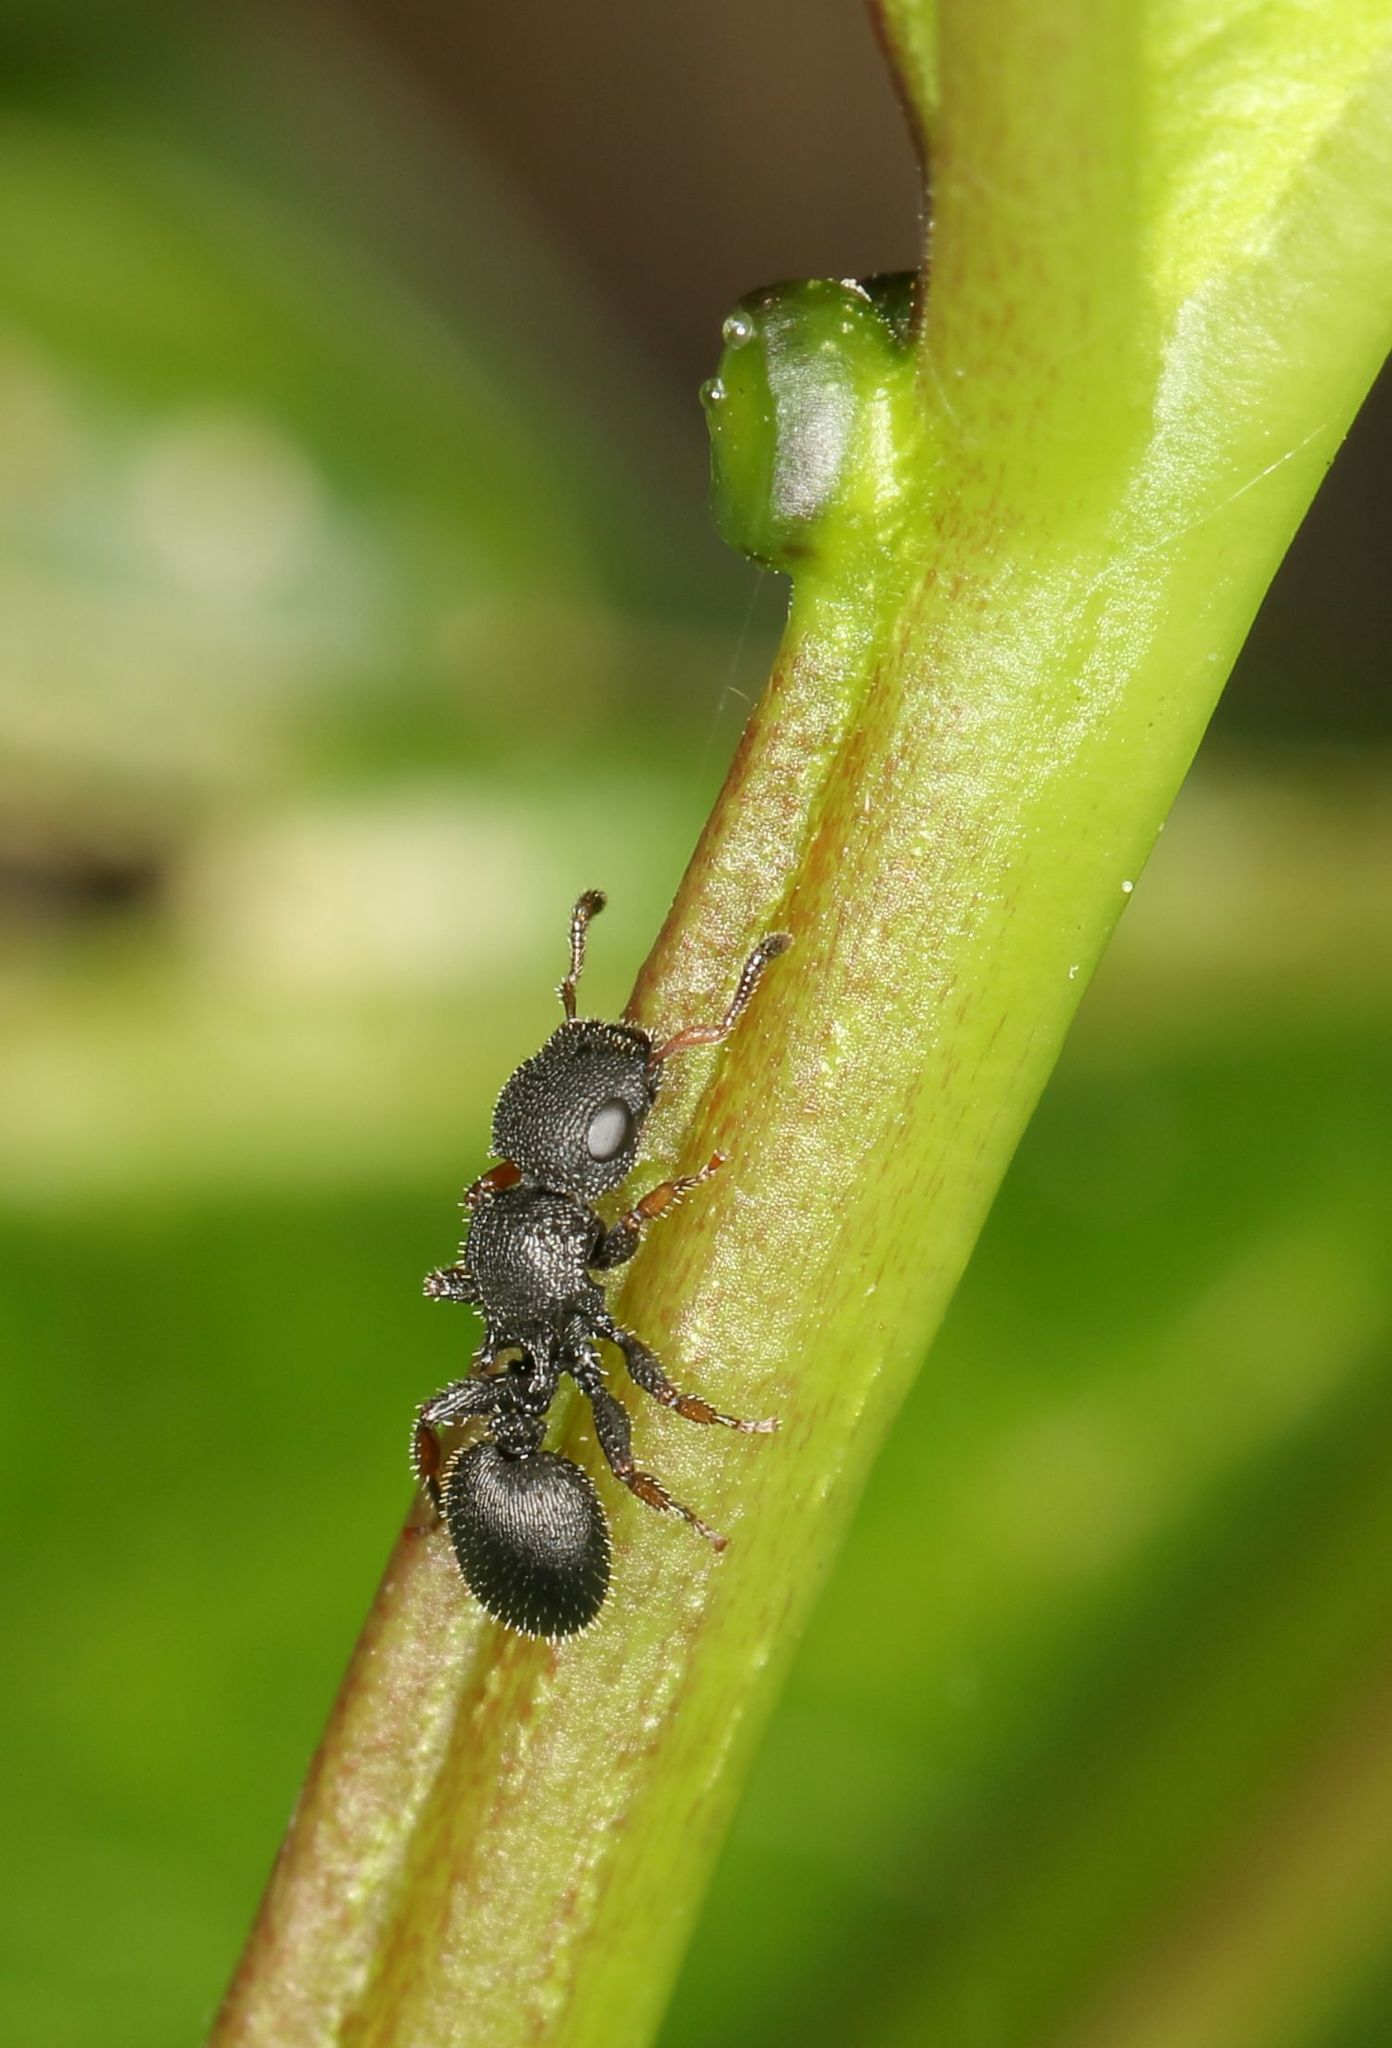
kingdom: Animalia
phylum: Arthropoda
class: Insecta
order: Hymenoptera
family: Formicidae
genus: Cataulacus
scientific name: Cataulacus intrudens
